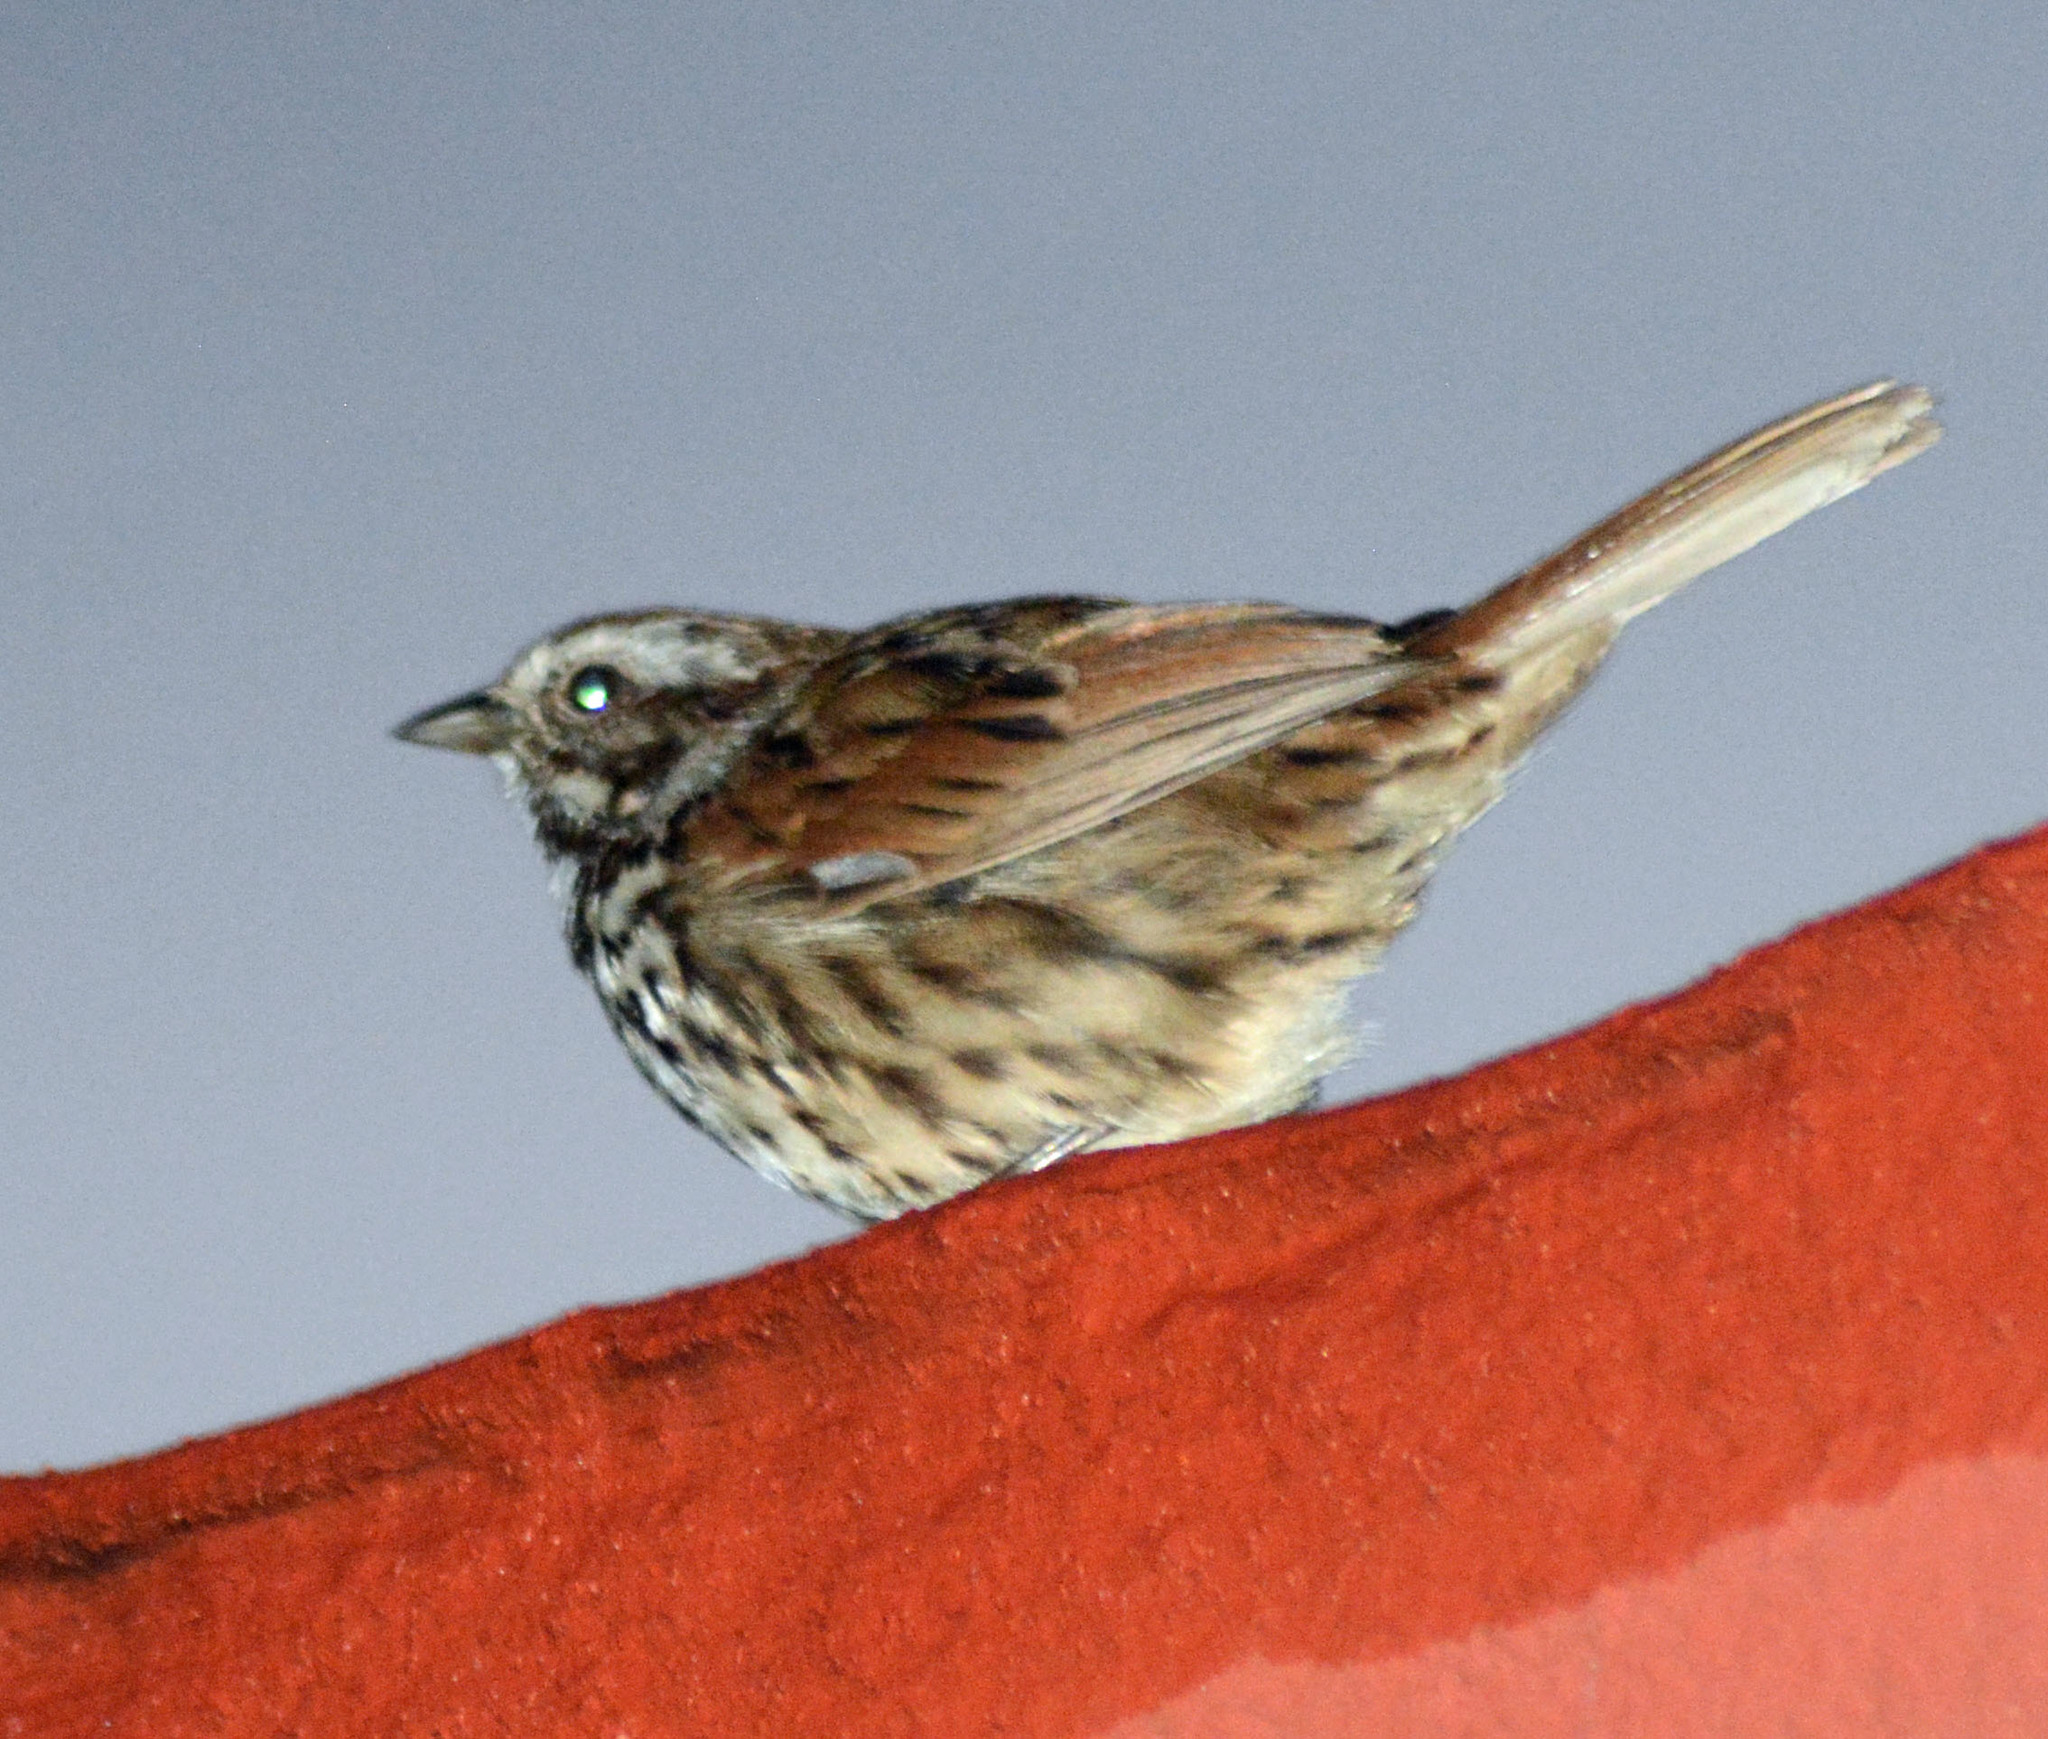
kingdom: Animalia
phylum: Chordata
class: Aves
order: Passeriformes
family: Passerellidae
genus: Melospiza
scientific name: Melospiza melodia
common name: Song sparrow
